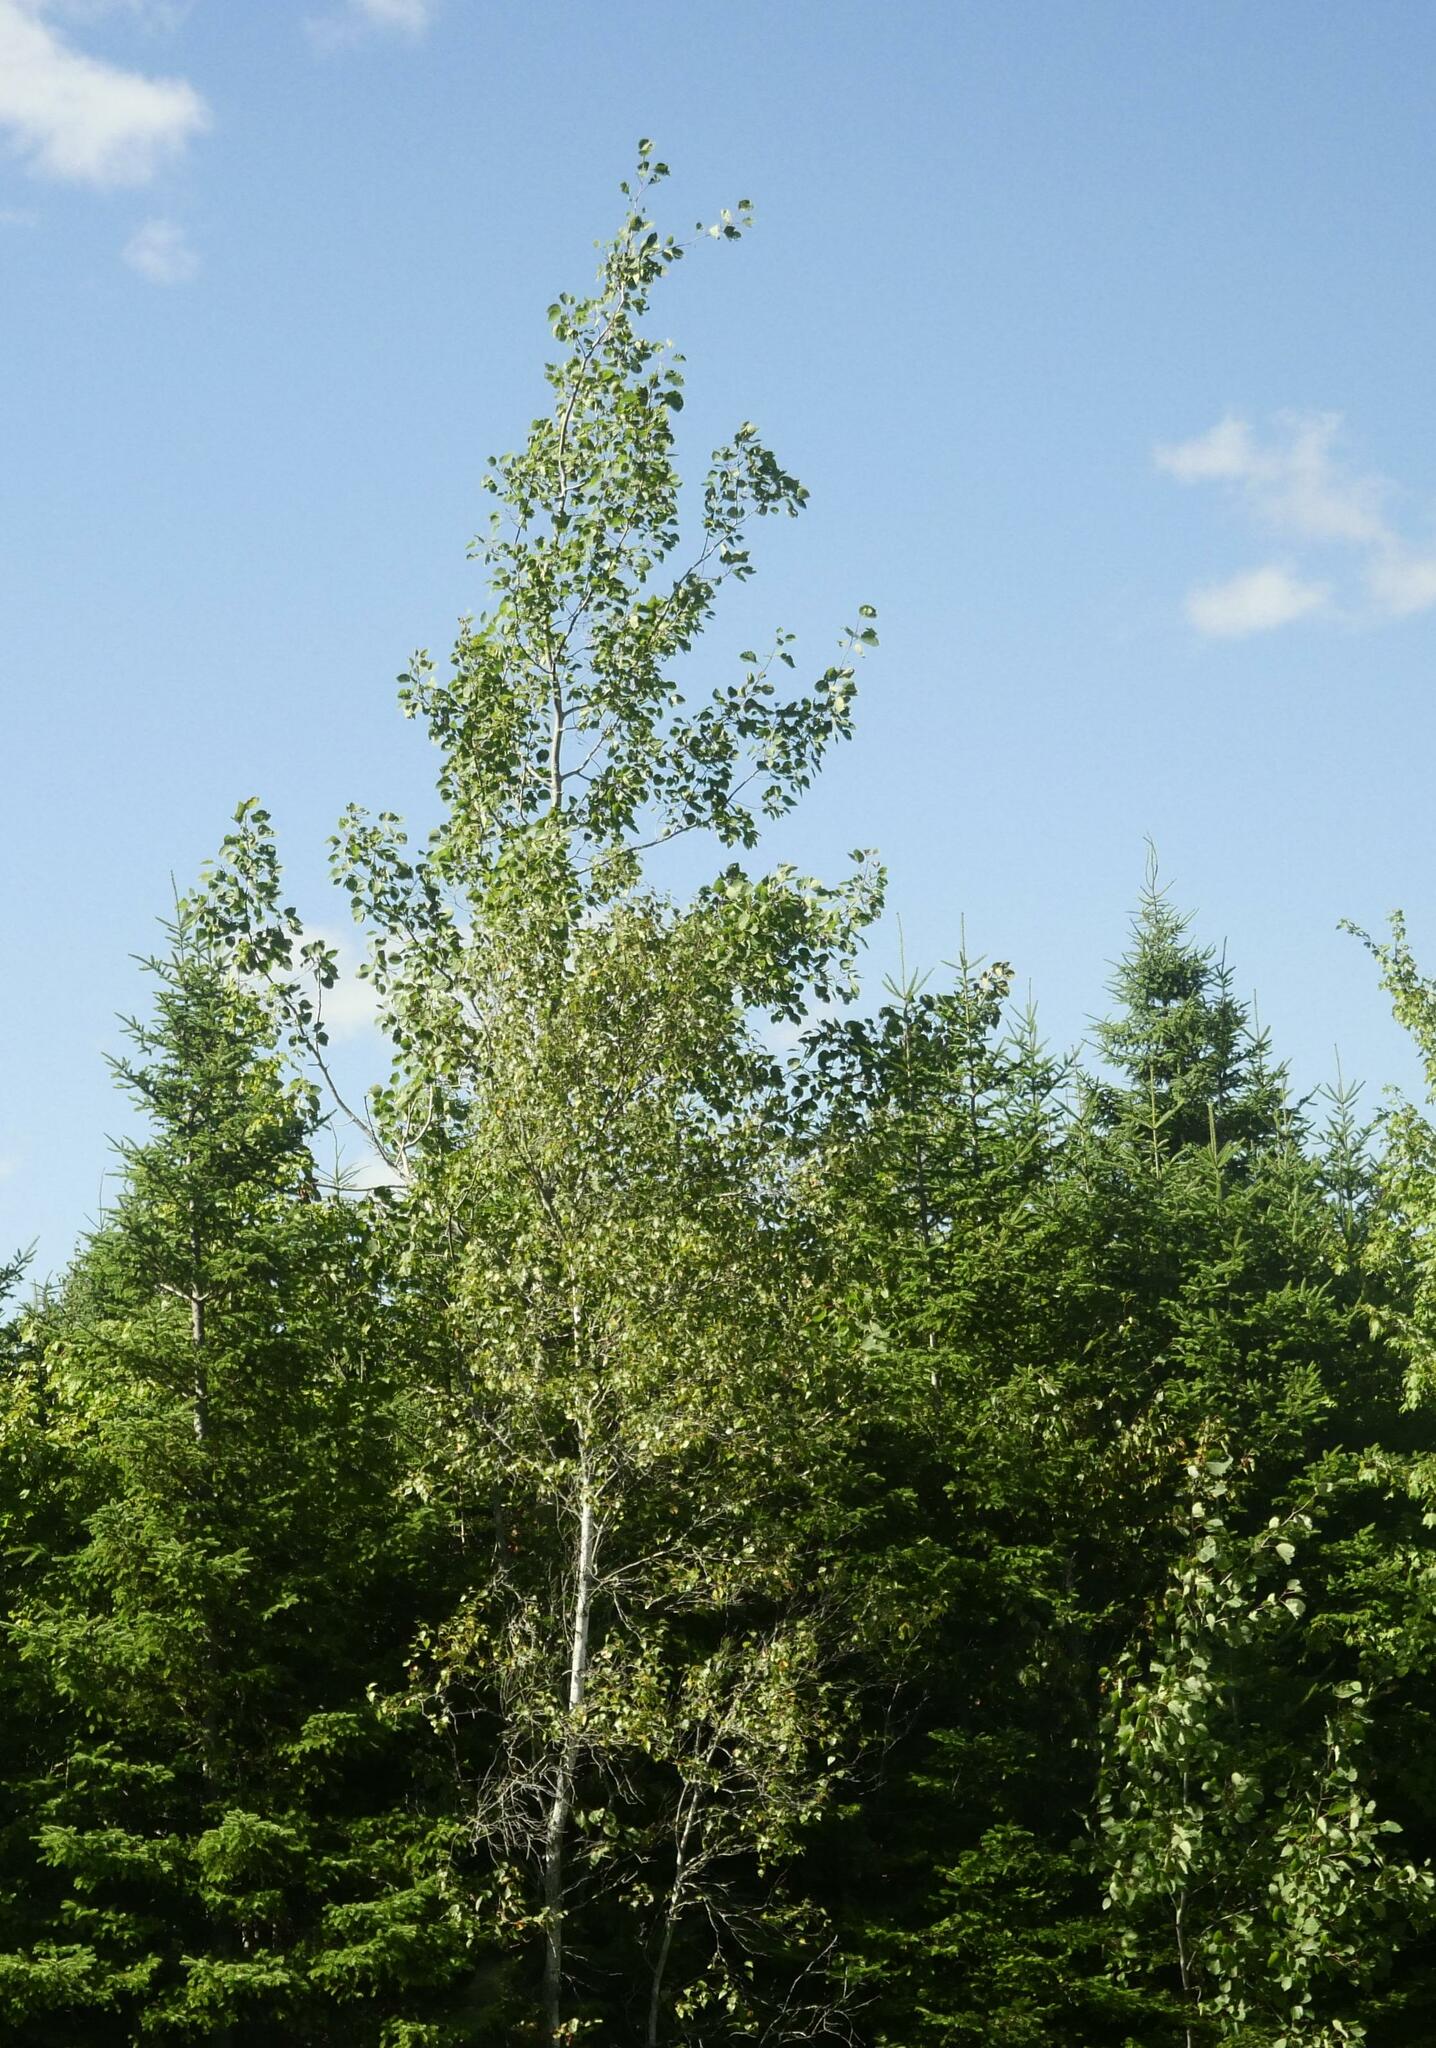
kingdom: Plantae
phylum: Tracheophyta
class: Magnoliopsida
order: Malpighiales
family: Salicaceae
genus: Populus
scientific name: Populus tremuloides
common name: Quaking aspen
